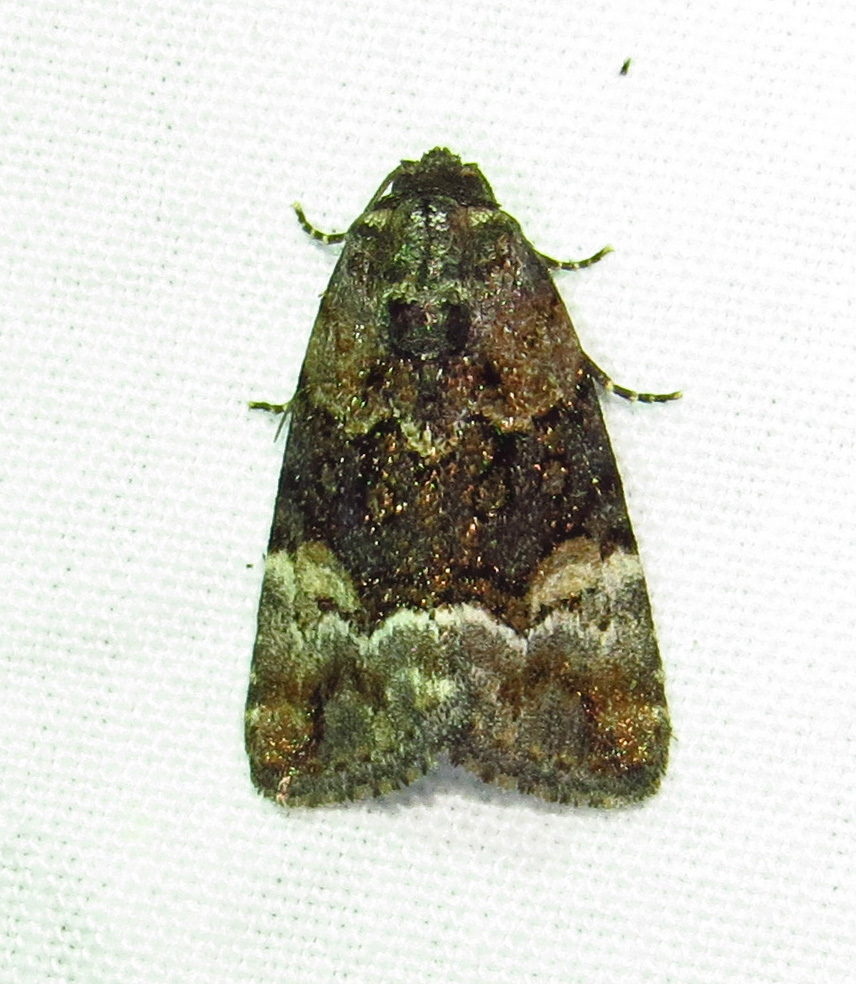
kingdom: Animalia
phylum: Arthropoda
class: Insecta
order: Lepidoptera
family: Noctuidae
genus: Elaphria
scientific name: Elaphria georgei
